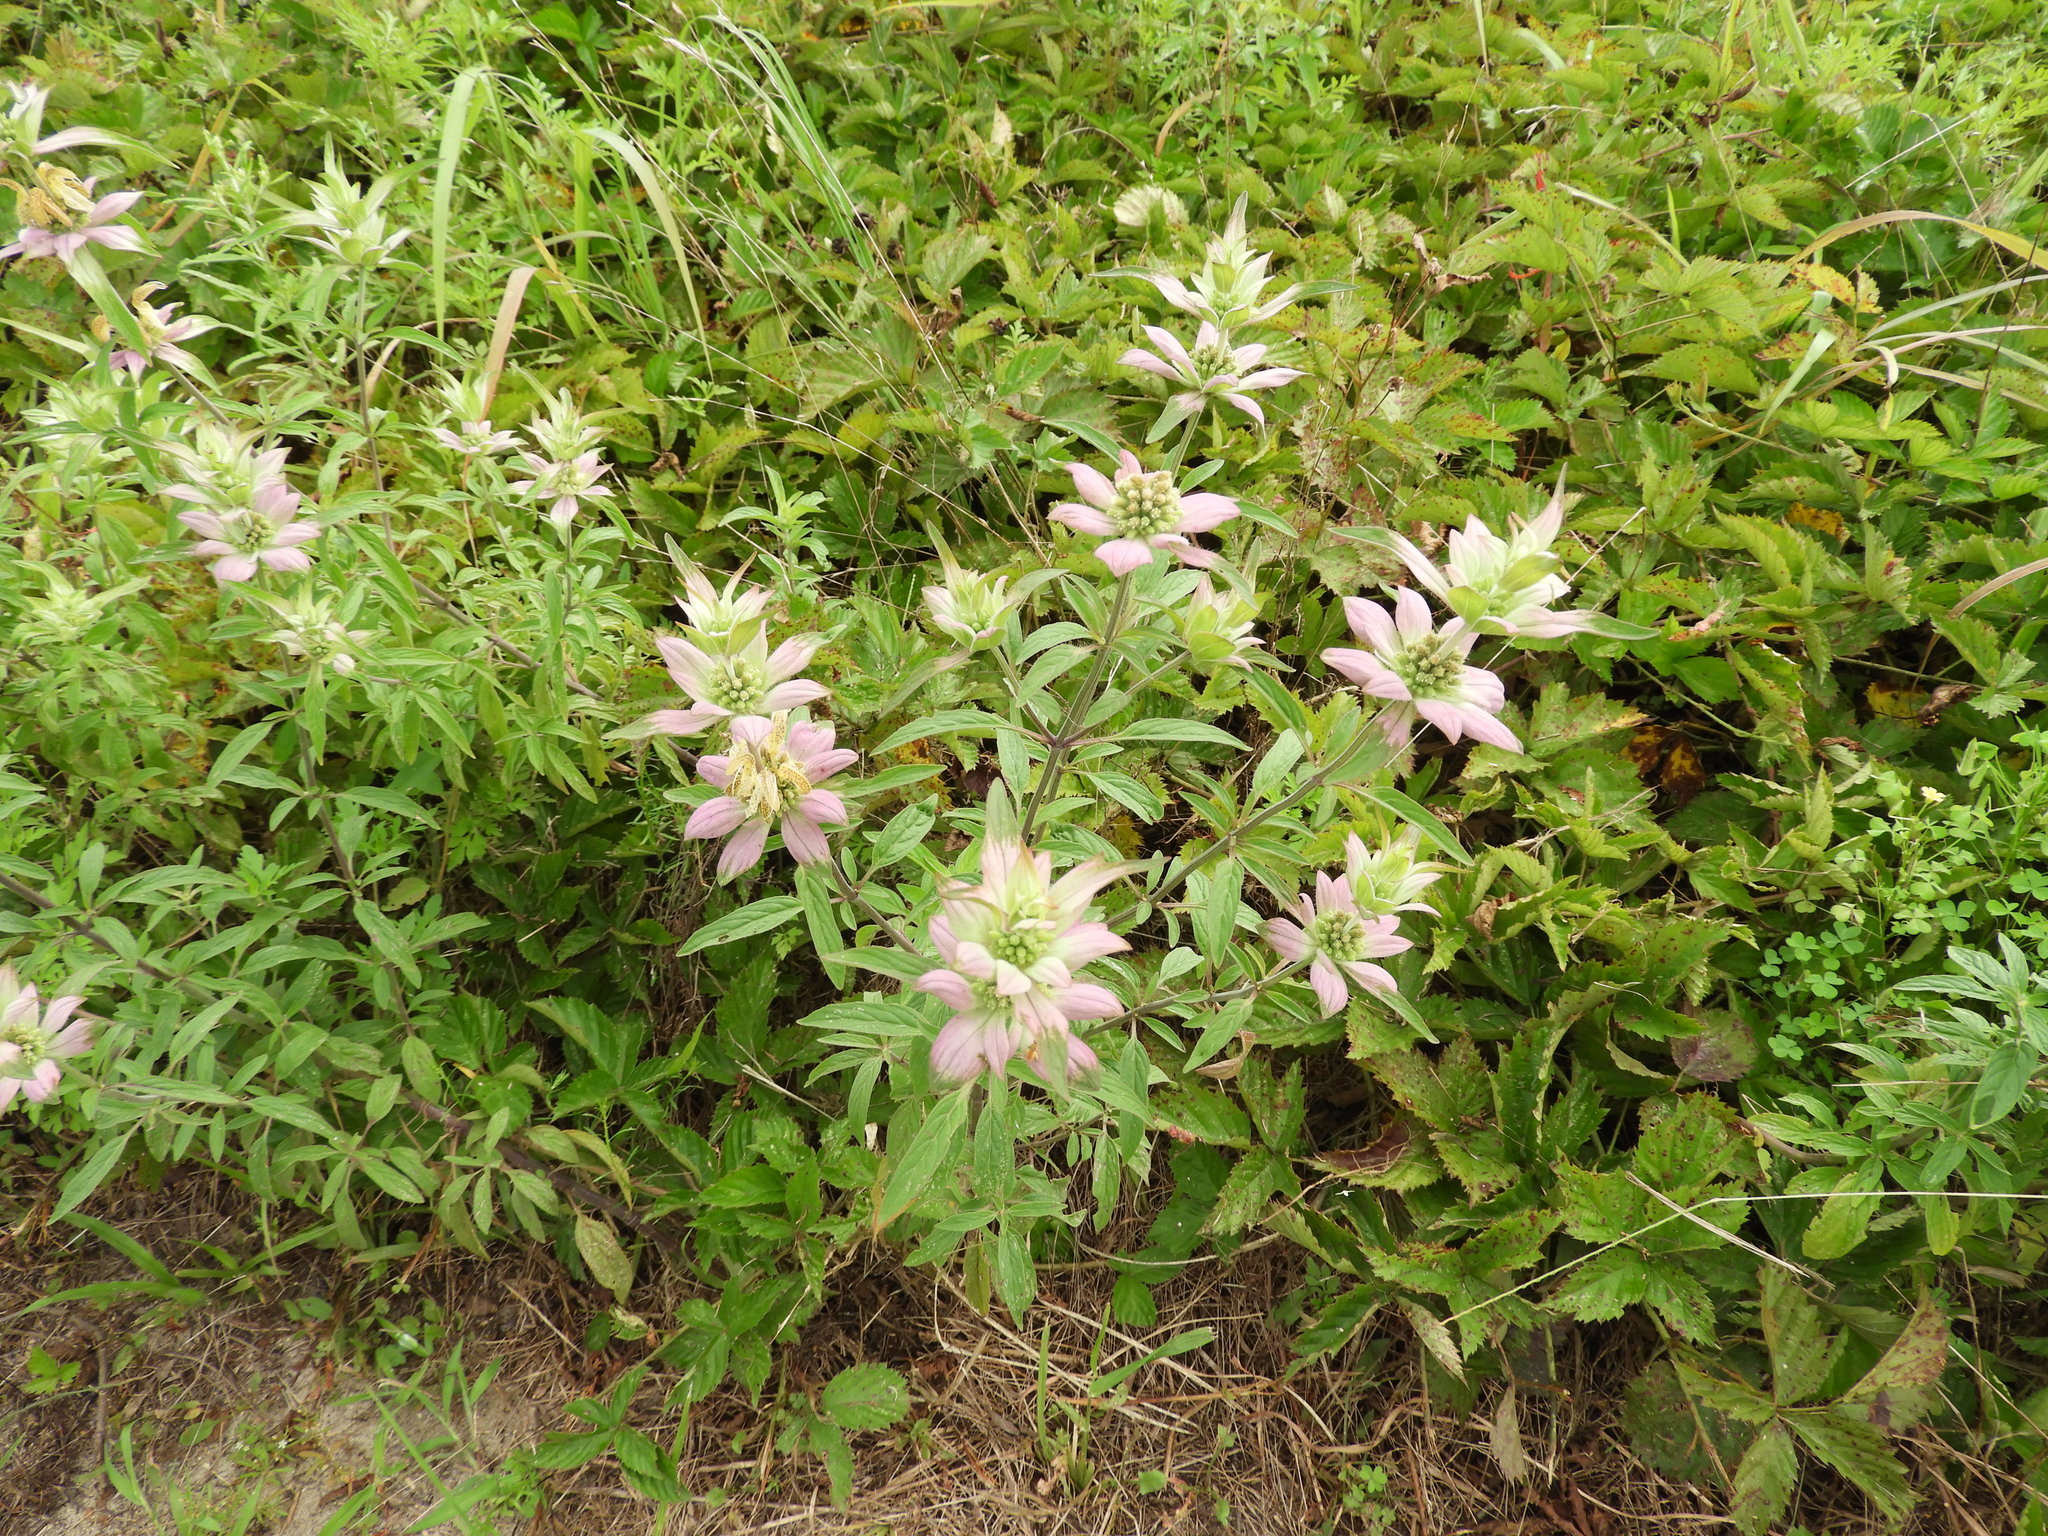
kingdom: Plantae
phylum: Tracheophyta
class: Magnoliopsida
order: Lamiales
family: Lamiaceae
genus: Monarda
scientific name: Monarda punctata
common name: Dotted monarda
